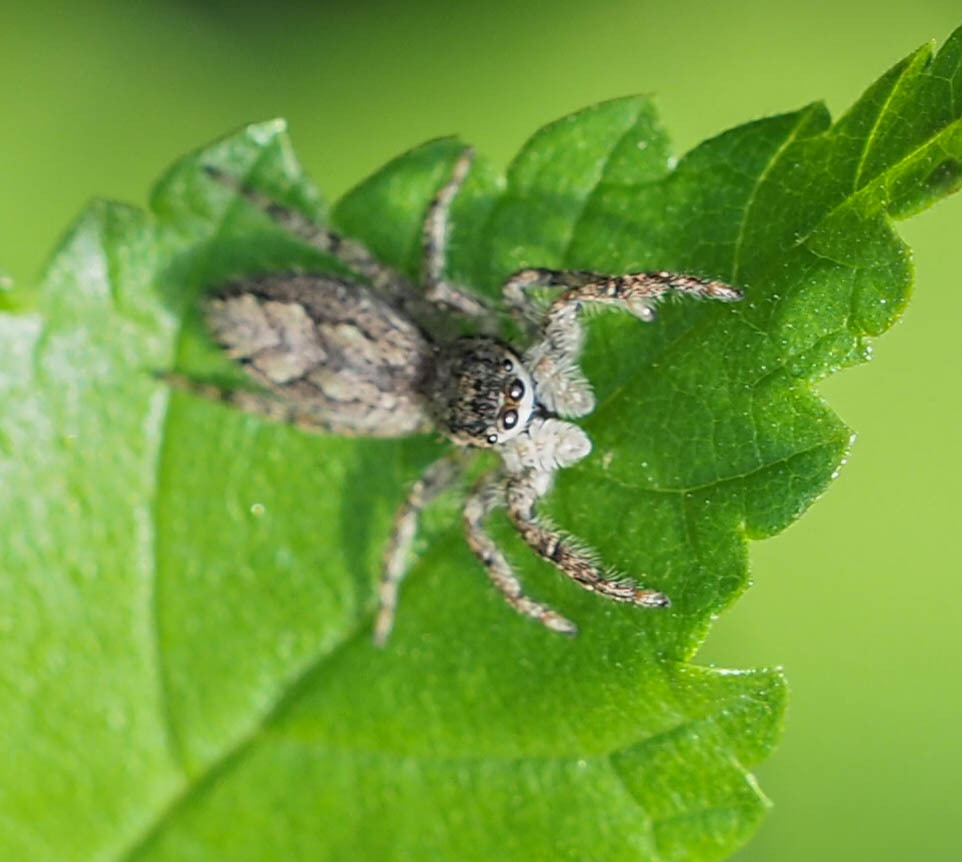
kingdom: Animalia
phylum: Arthropoda
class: Arachnida
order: Araneae
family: Salticidae
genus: Platycryptus
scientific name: Platycryptus undatus
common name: Tan jumping spider
